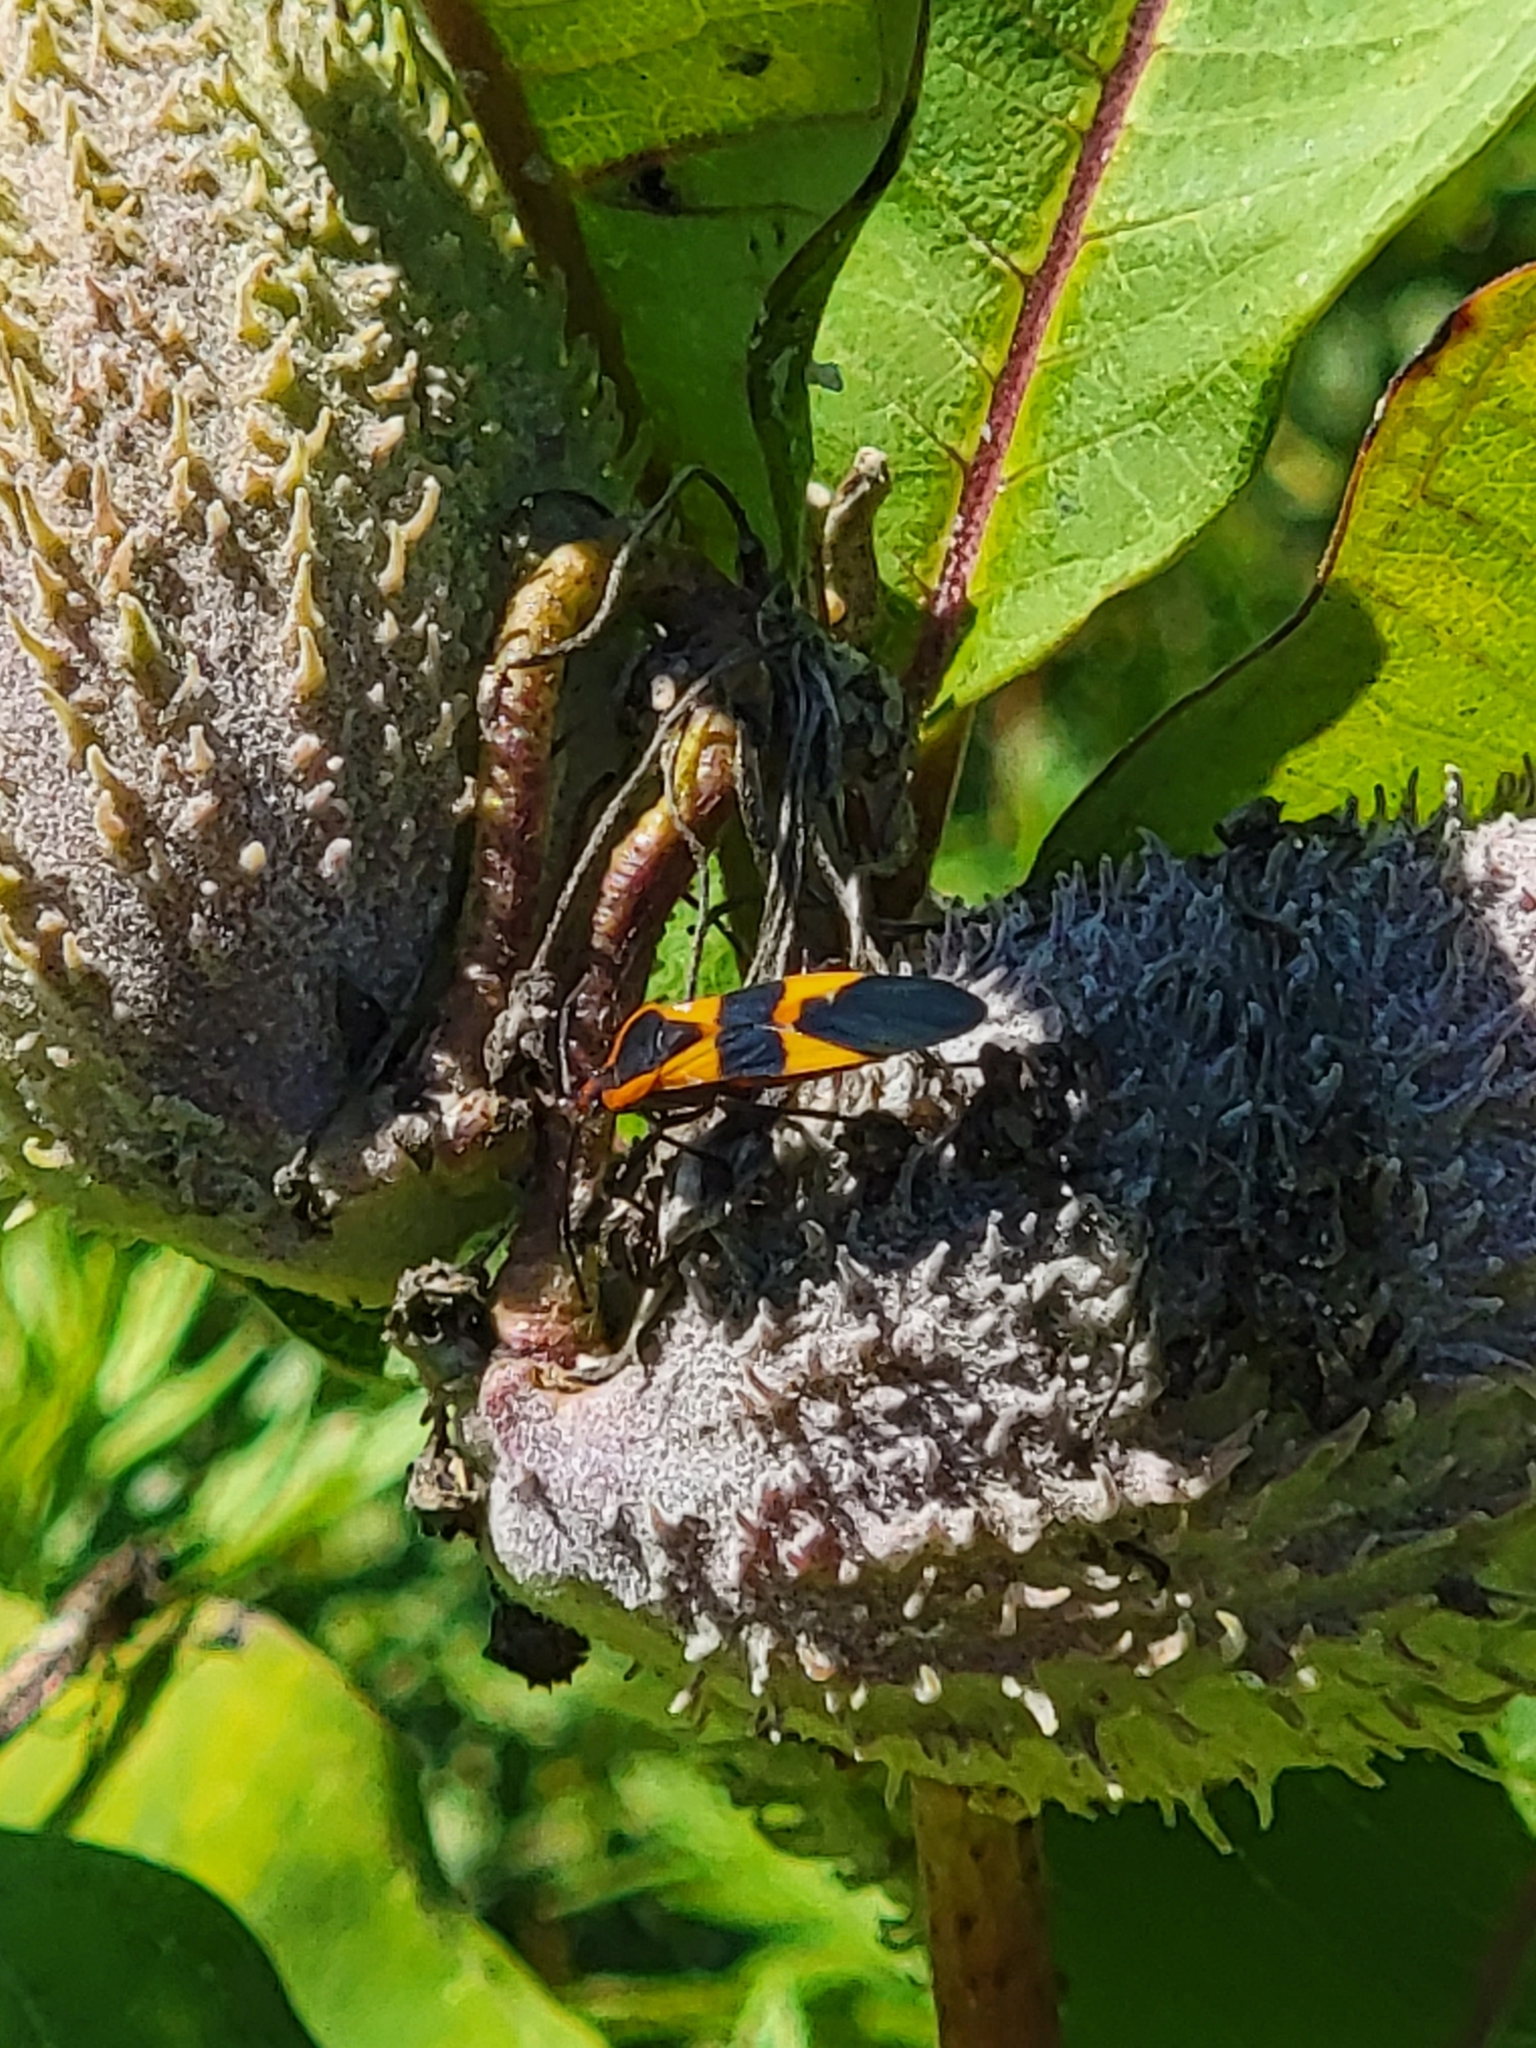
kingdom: Animalia
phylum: Arthropoda
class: Insecta
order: Hemiptera
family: Lygaeidae
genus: Oncopeltus
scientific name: Oncopeltus fasciatus
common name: Large milkweed bug
